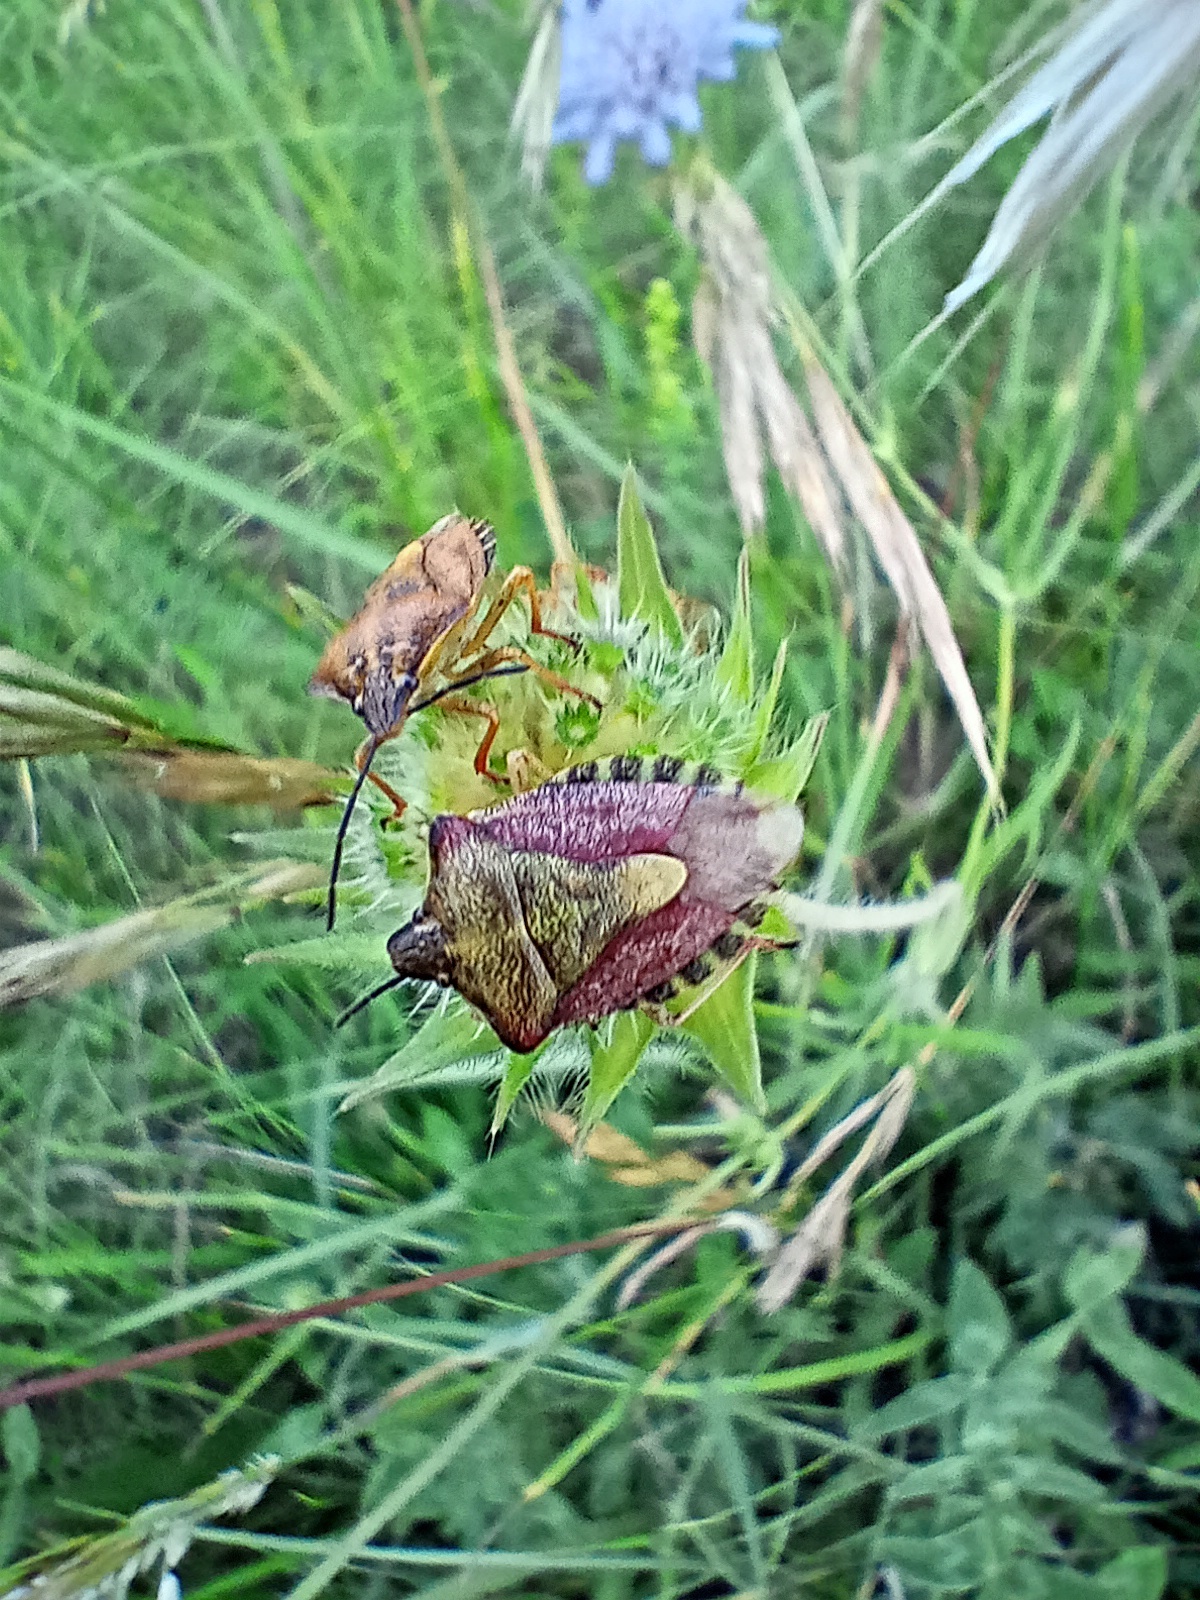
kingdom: Animalia
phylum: Arthropoda
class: Insecta
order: Hemiptera
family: Pentatomidae
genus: Carpocoris
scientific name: Carpocoris purpureipennis
